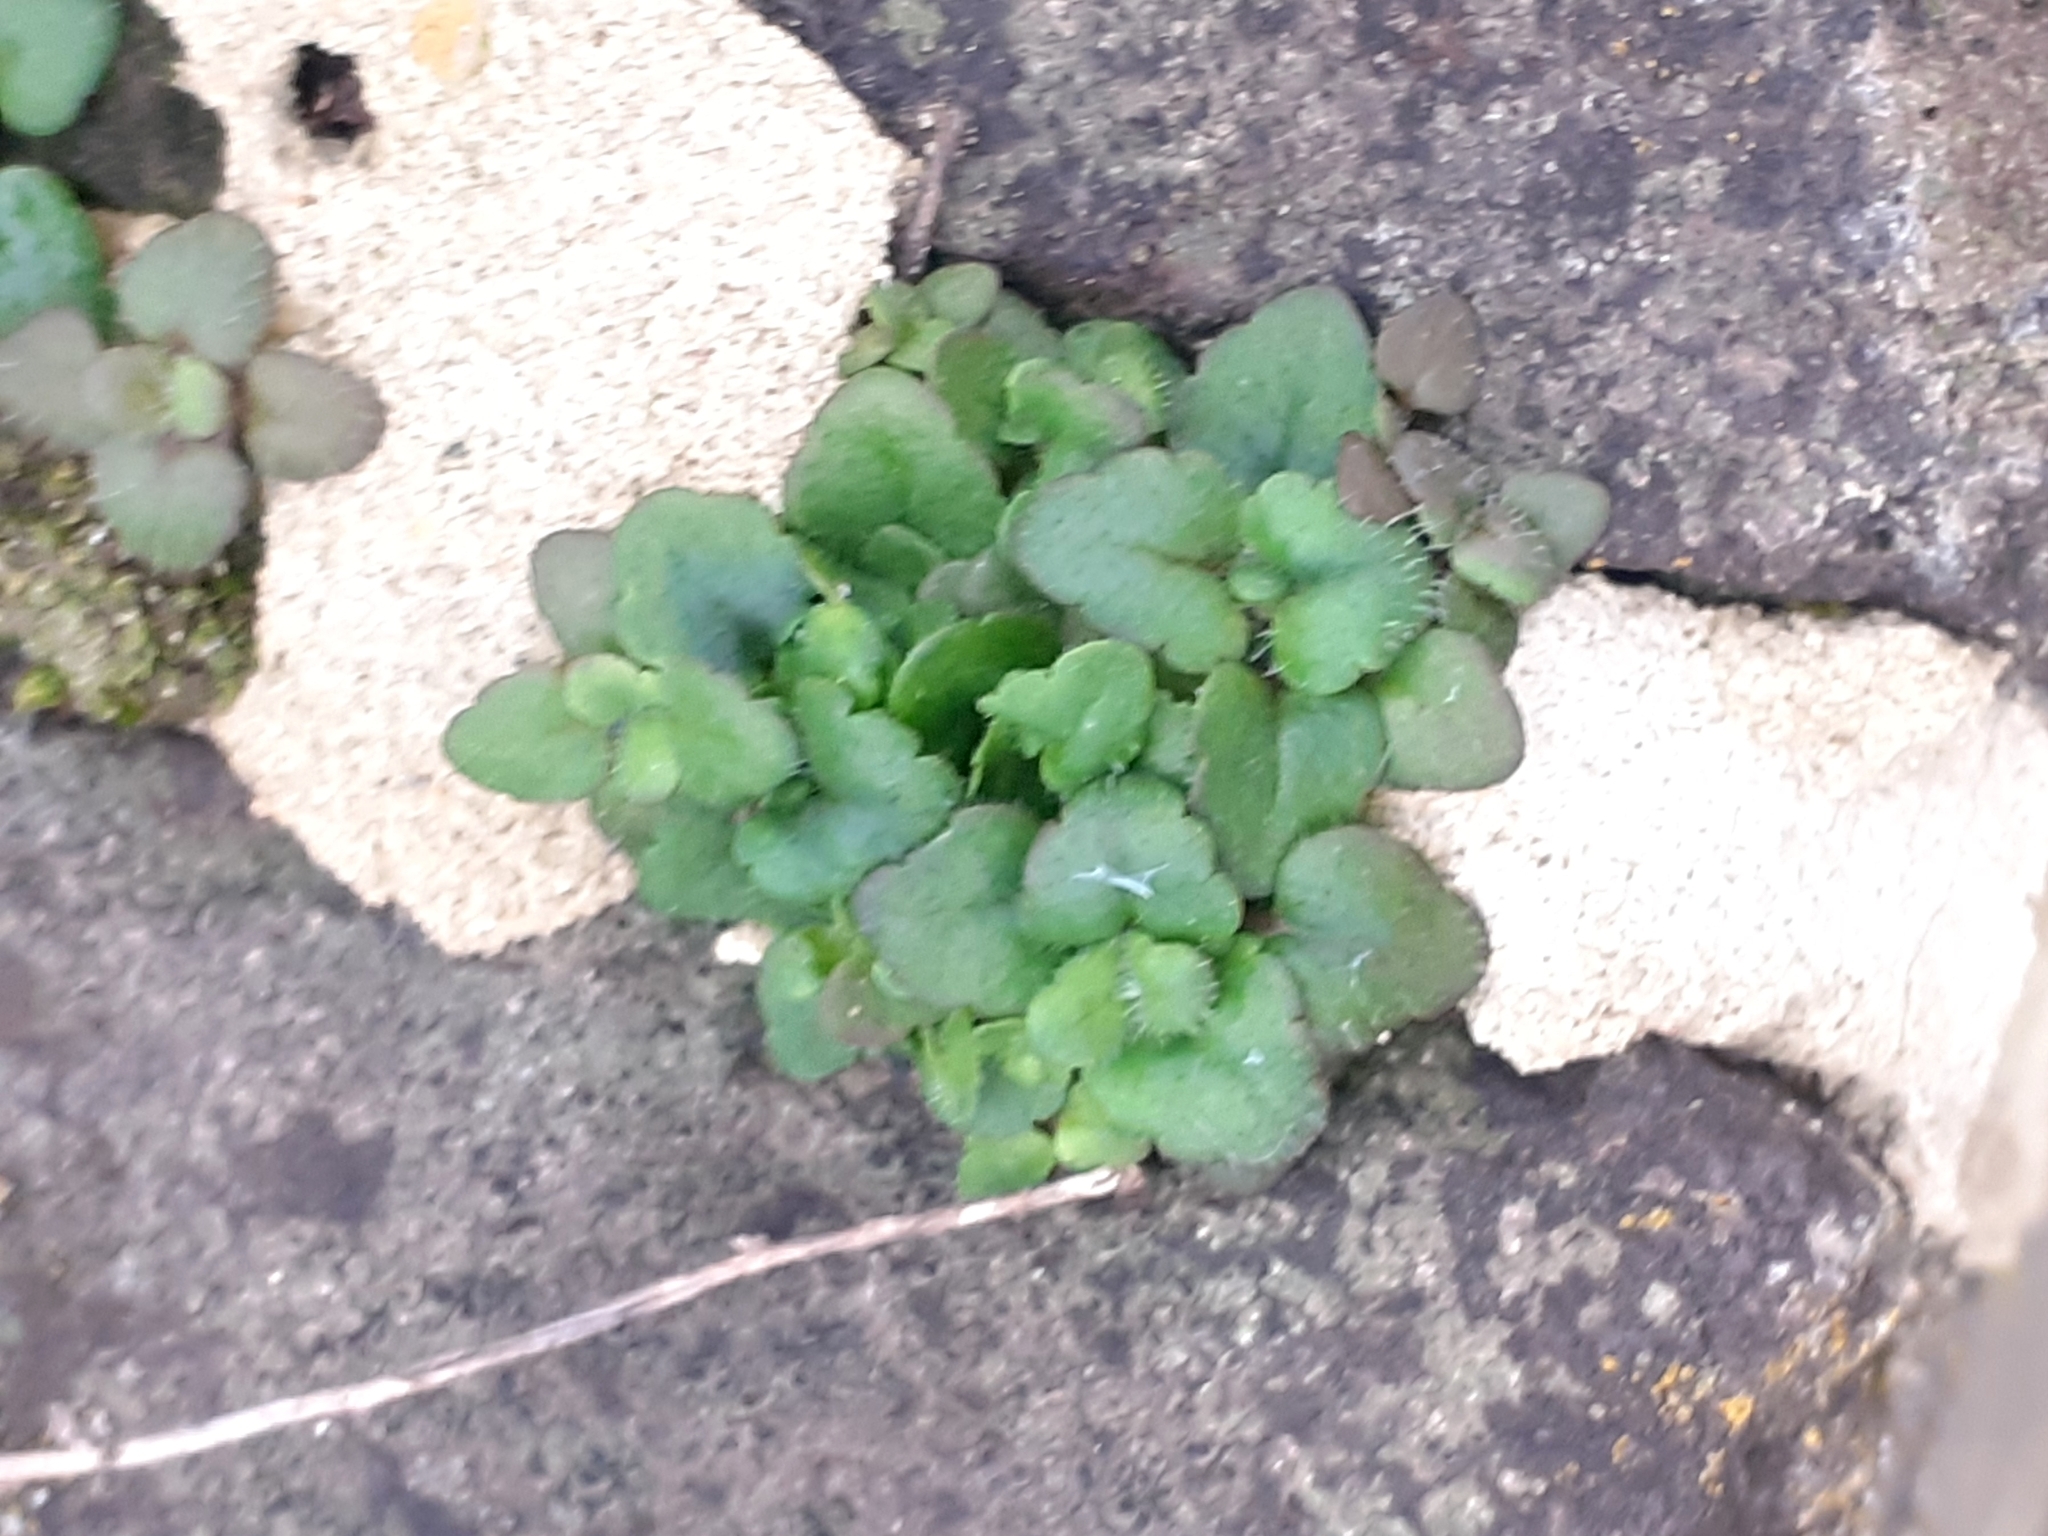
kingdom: Plantae
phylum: Tracheophyta
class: Magnoliopsida
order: Lamiales
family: Plantaginaceae
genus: Veronica
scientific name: Veronica arvensis
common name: Corn speedwell
